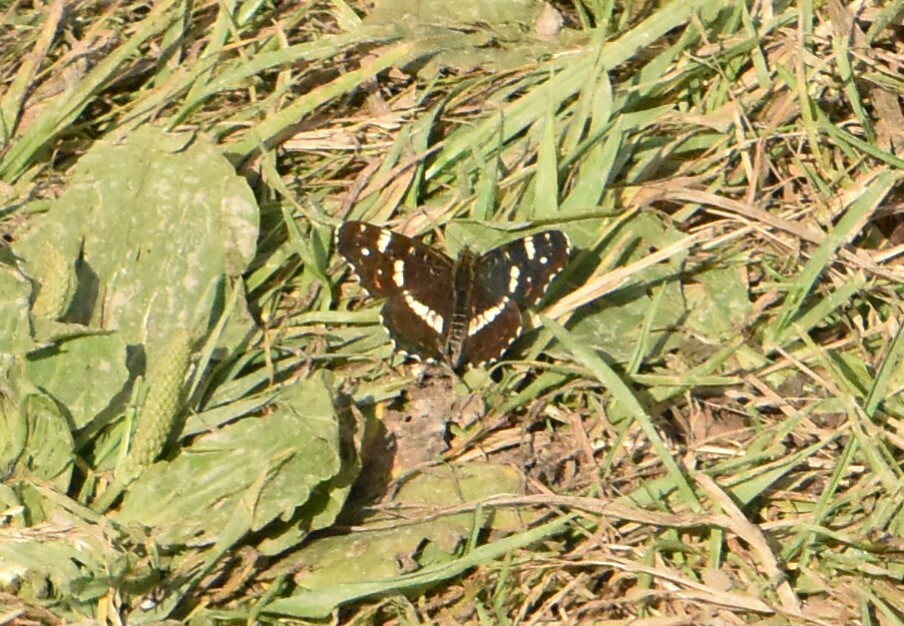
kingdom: Animalia
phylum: Arthropoda
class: Insecta
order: Lepidoptera
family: Nymphalidae
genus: Araschnia
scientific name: Araschnia levana
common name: Map butterfly
